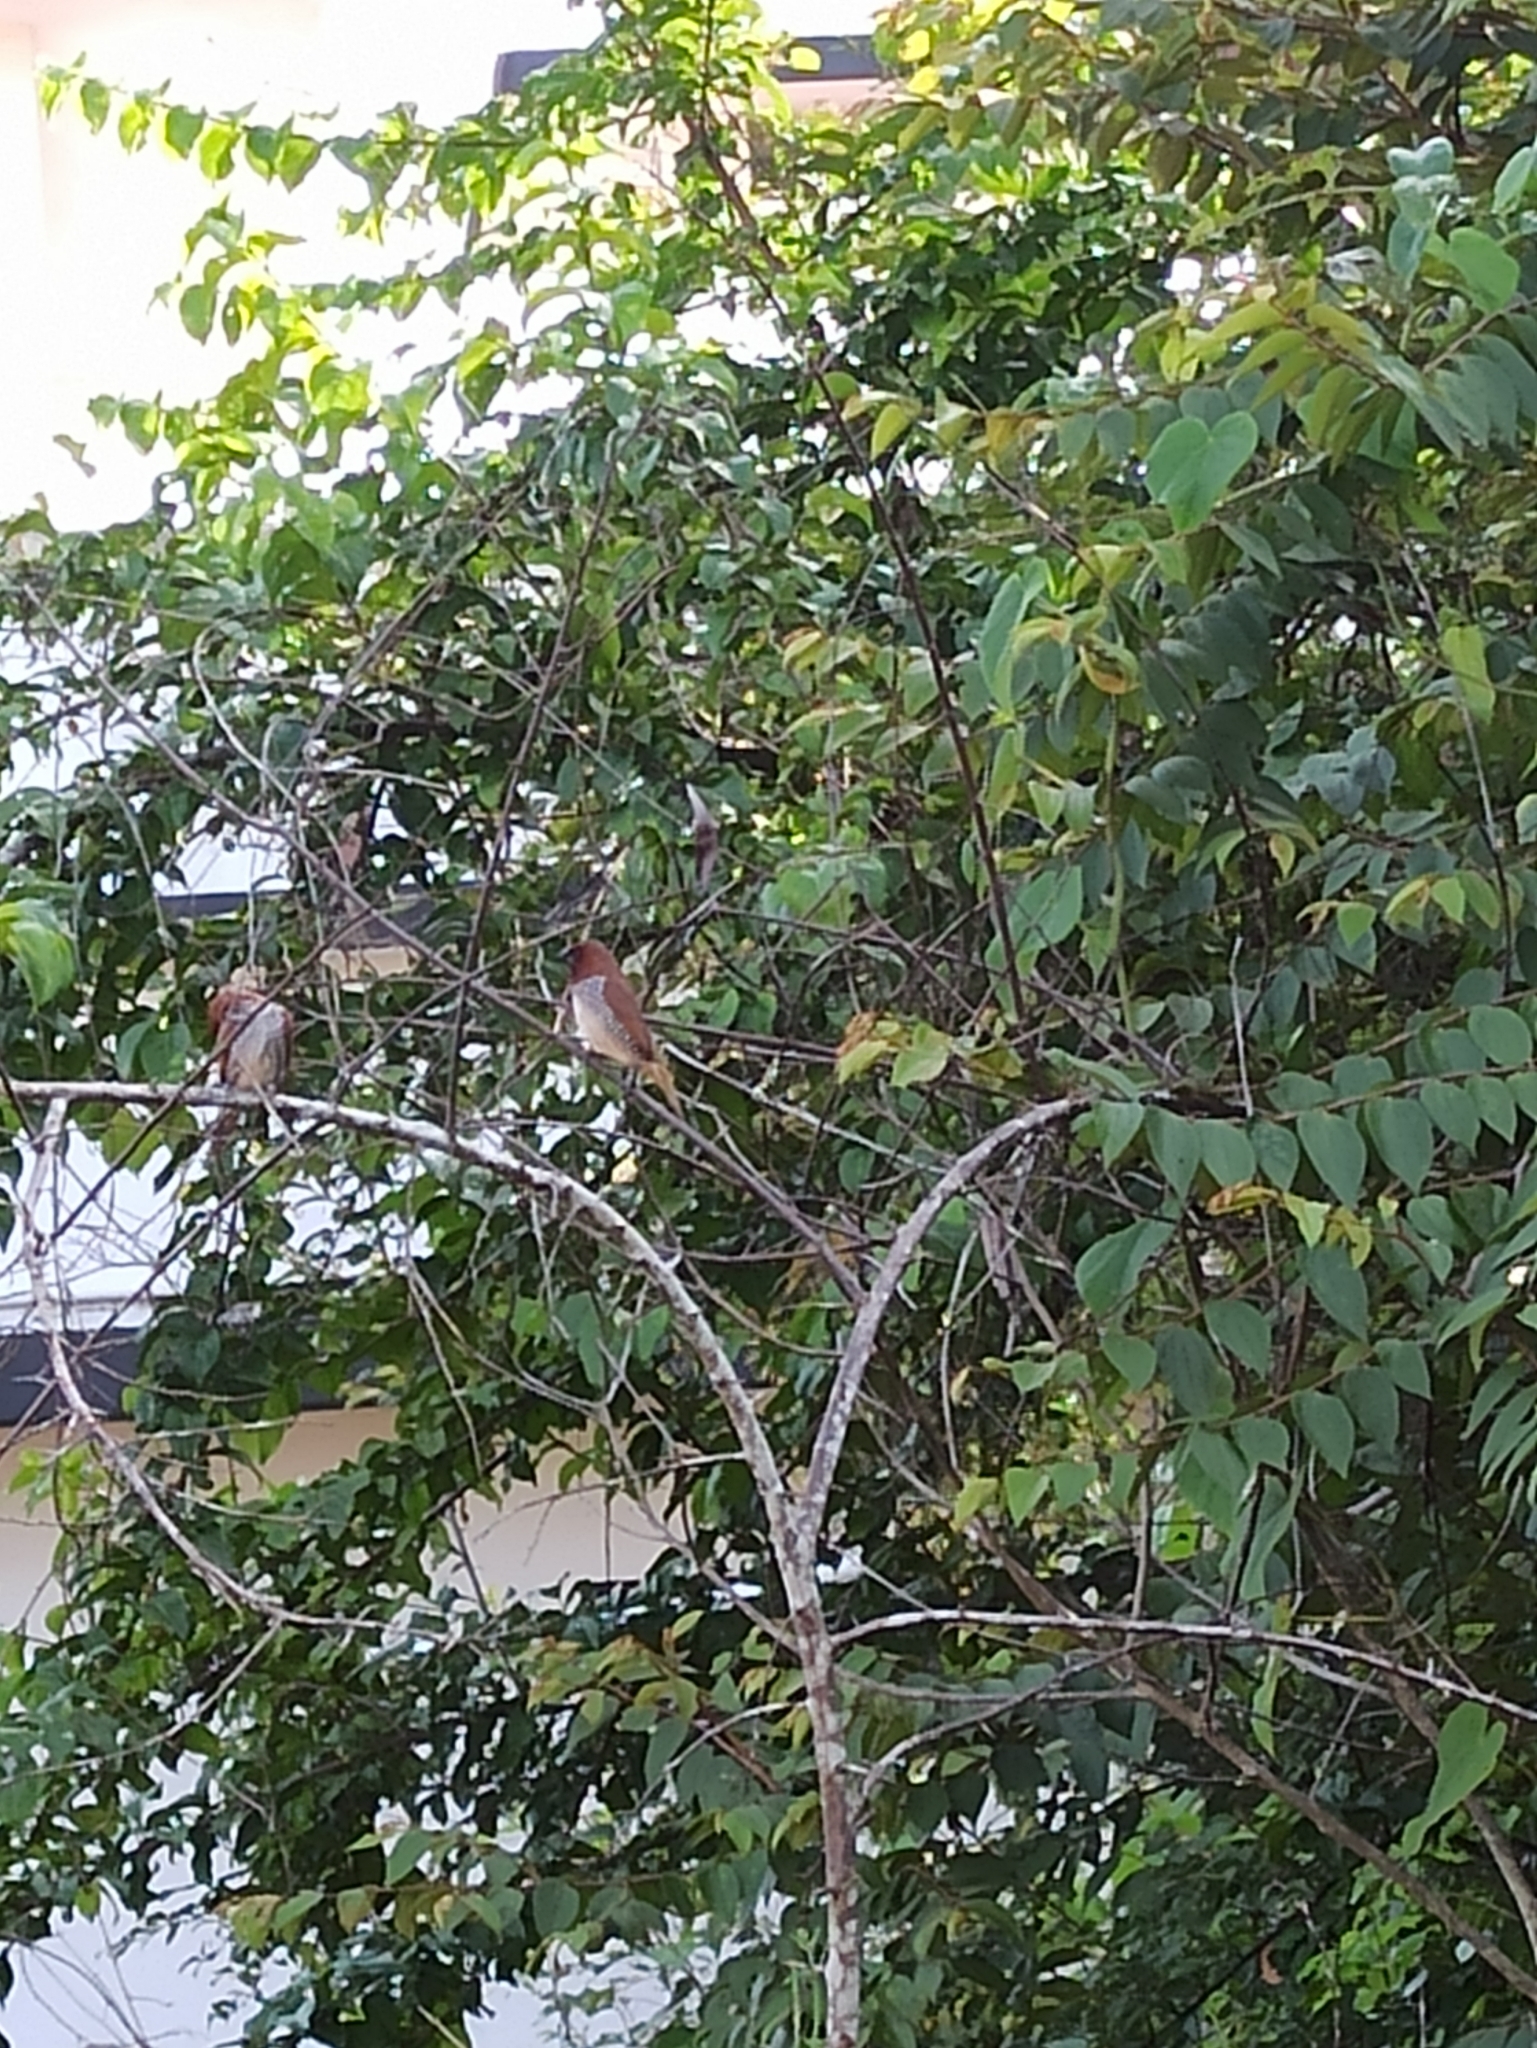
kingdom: Animalia
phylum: Chordata
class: Aves
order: Passeriformes
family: Estrildidae
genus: Lonchura
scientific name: Lonchura punctulata
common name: Scaly-breasted munia
